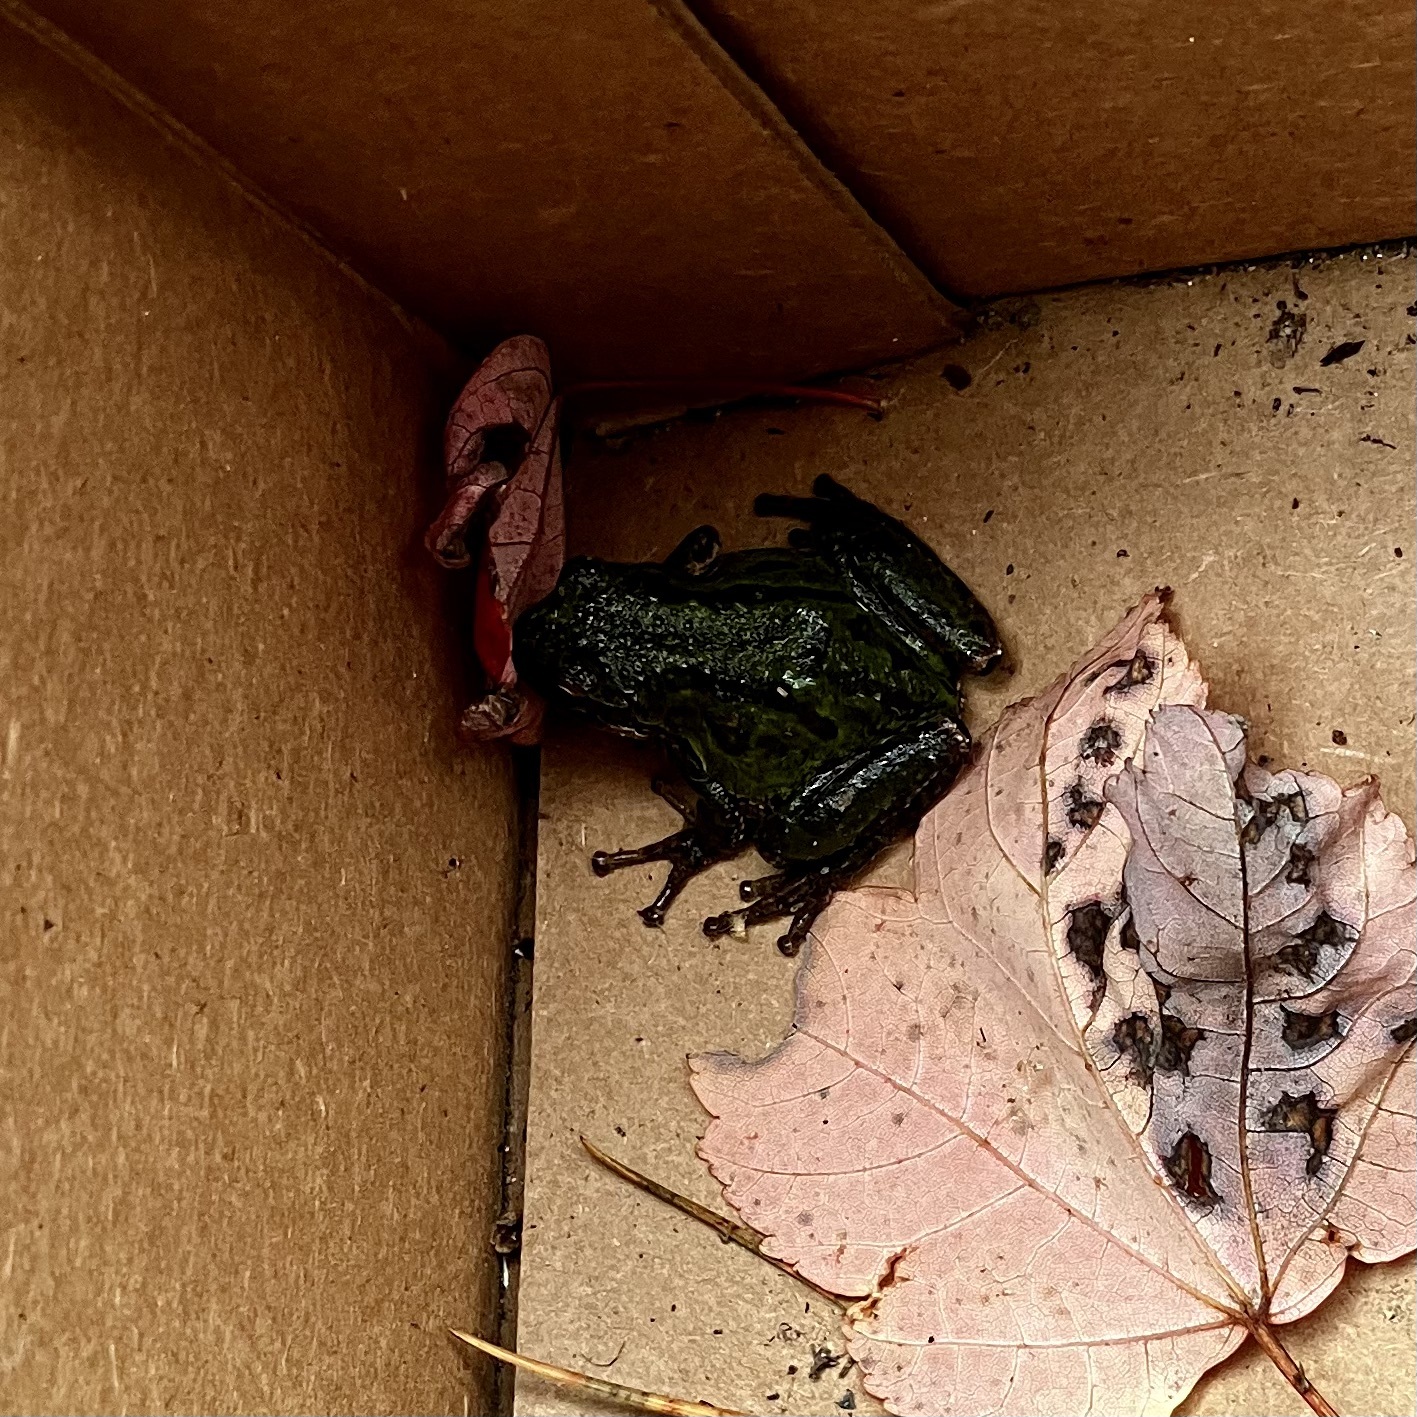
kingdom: Animalia
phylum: Chordata
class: Amphibia
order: Anura
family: Hylidae
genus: Pseudacris
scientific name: Pseudacris regilla
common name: Pacific chorus frog
